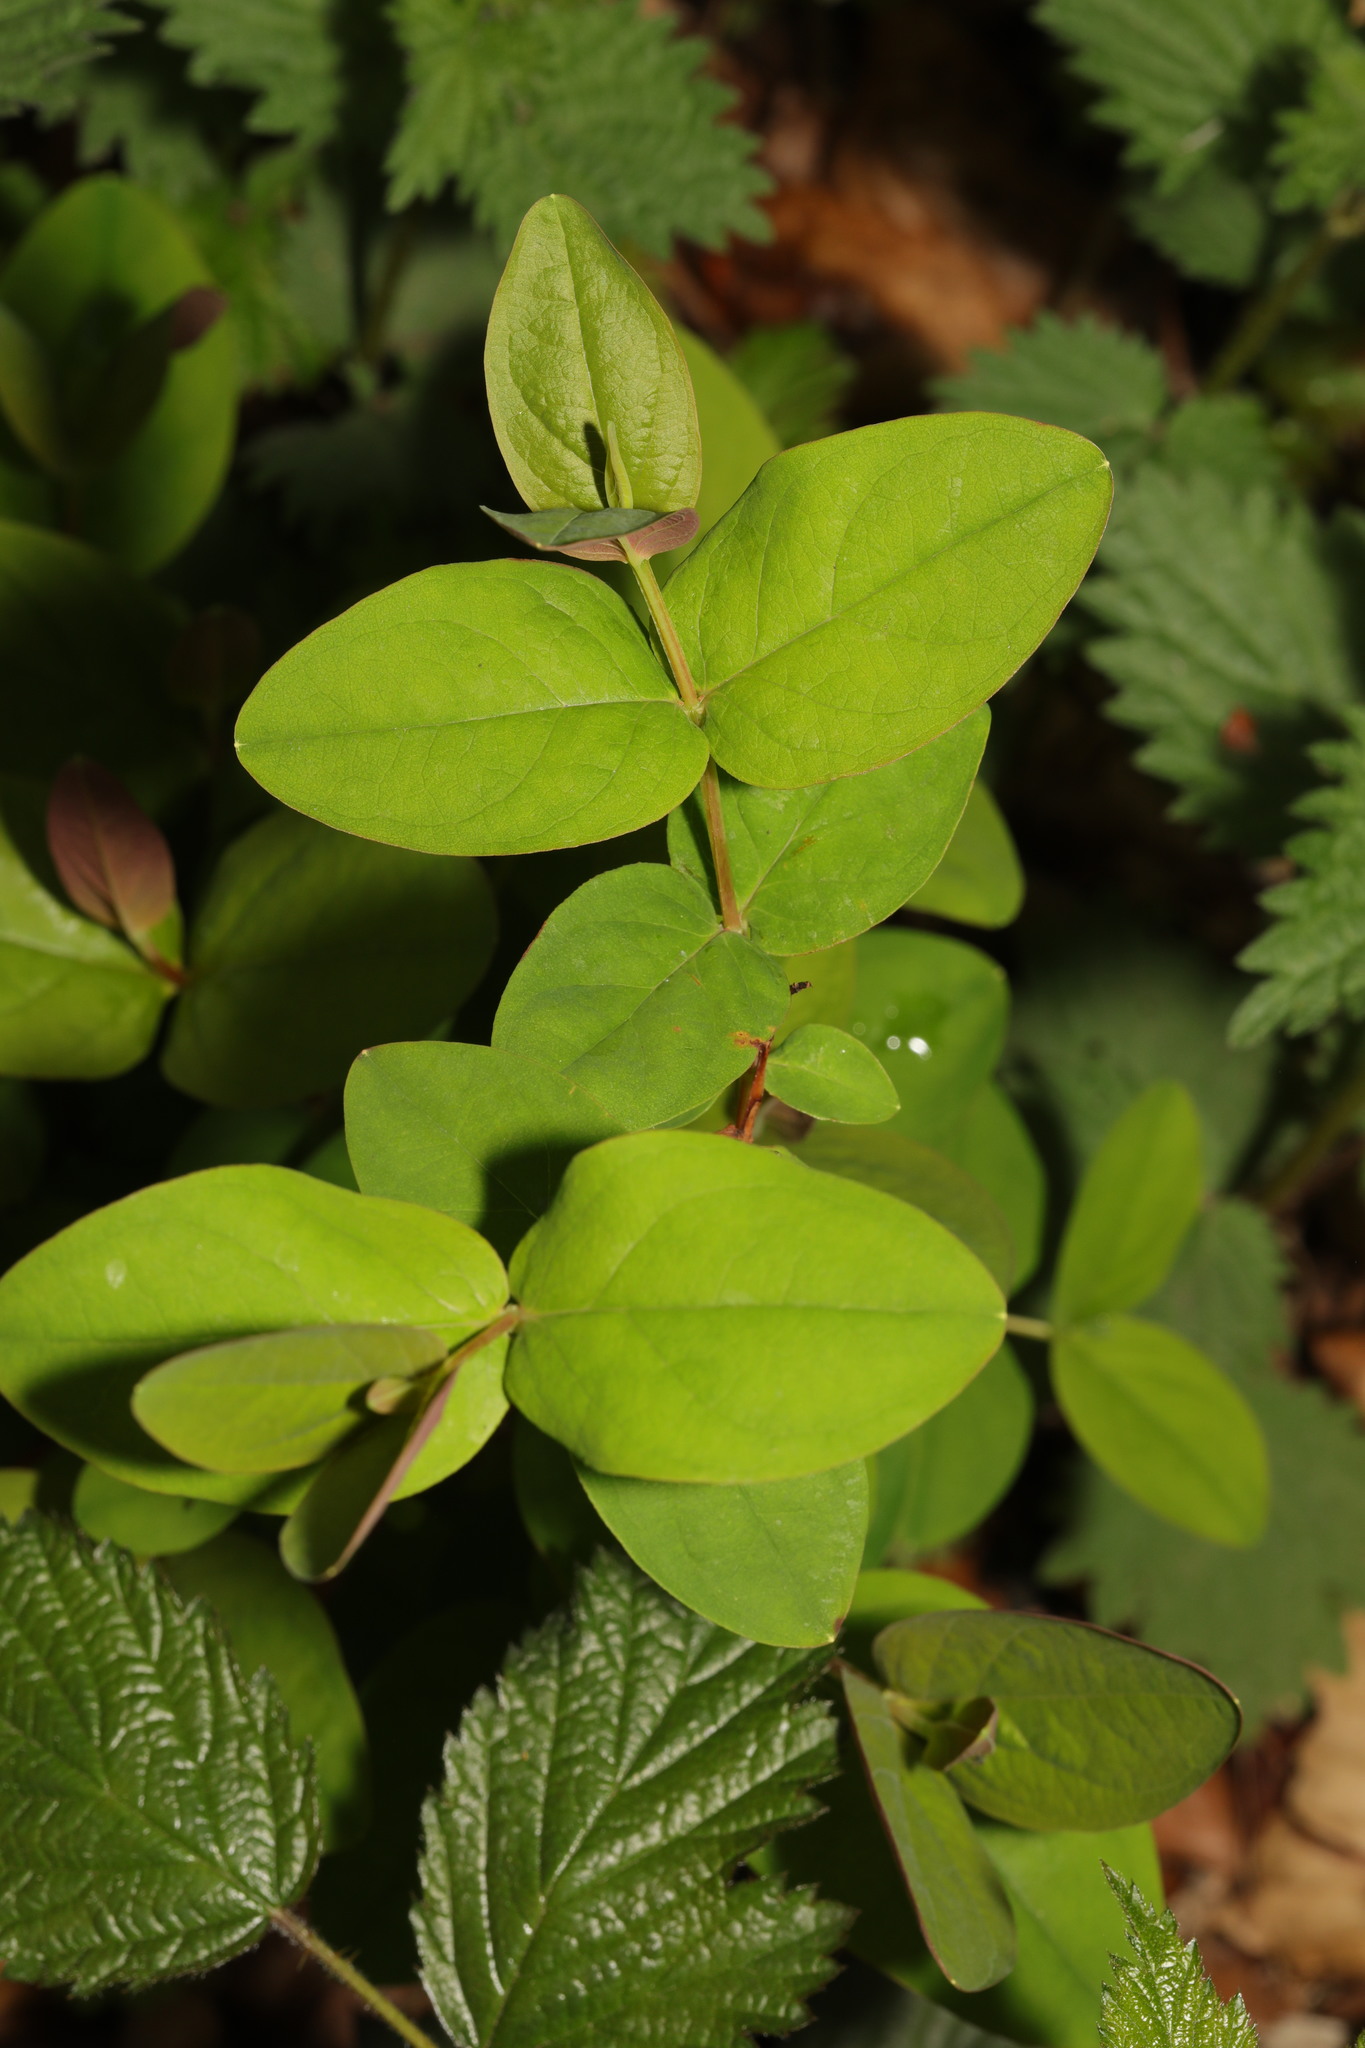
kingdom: Plantae
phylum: Tracheophyta
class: Magnoliopsida
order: Malpighiales
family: Hypericaceae
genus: Hypericum
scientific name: Hypericum androsaemum
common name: Sweet-amber
